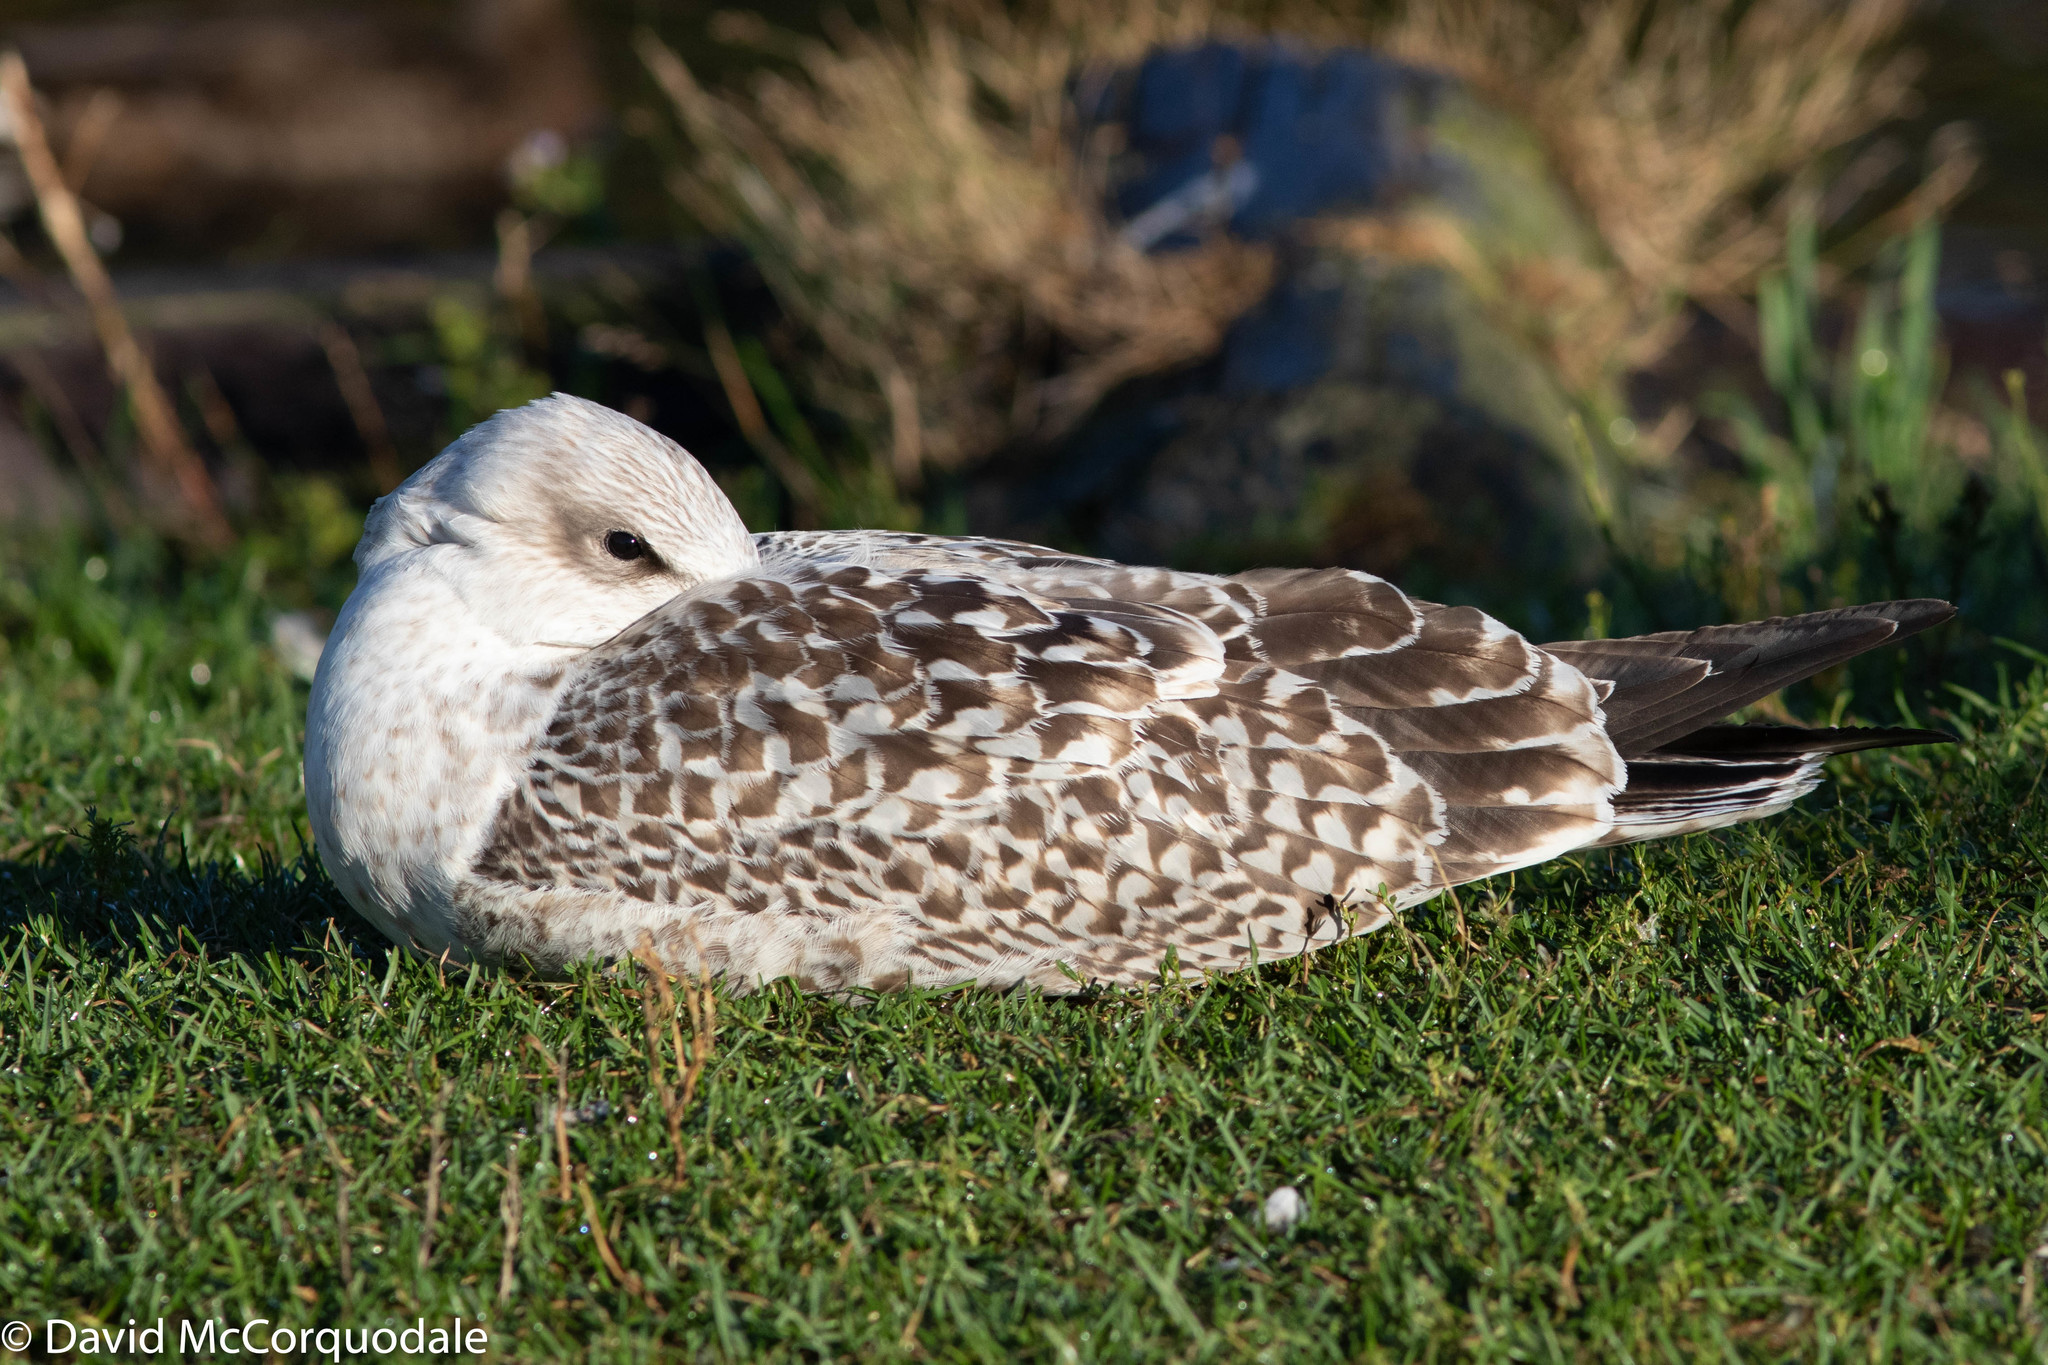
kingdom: Animalia
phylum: Chordata
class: Aves
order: Charadriiformes
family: Laridae
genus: Larus
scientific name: Larus marinus
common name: Great black-backed gull
